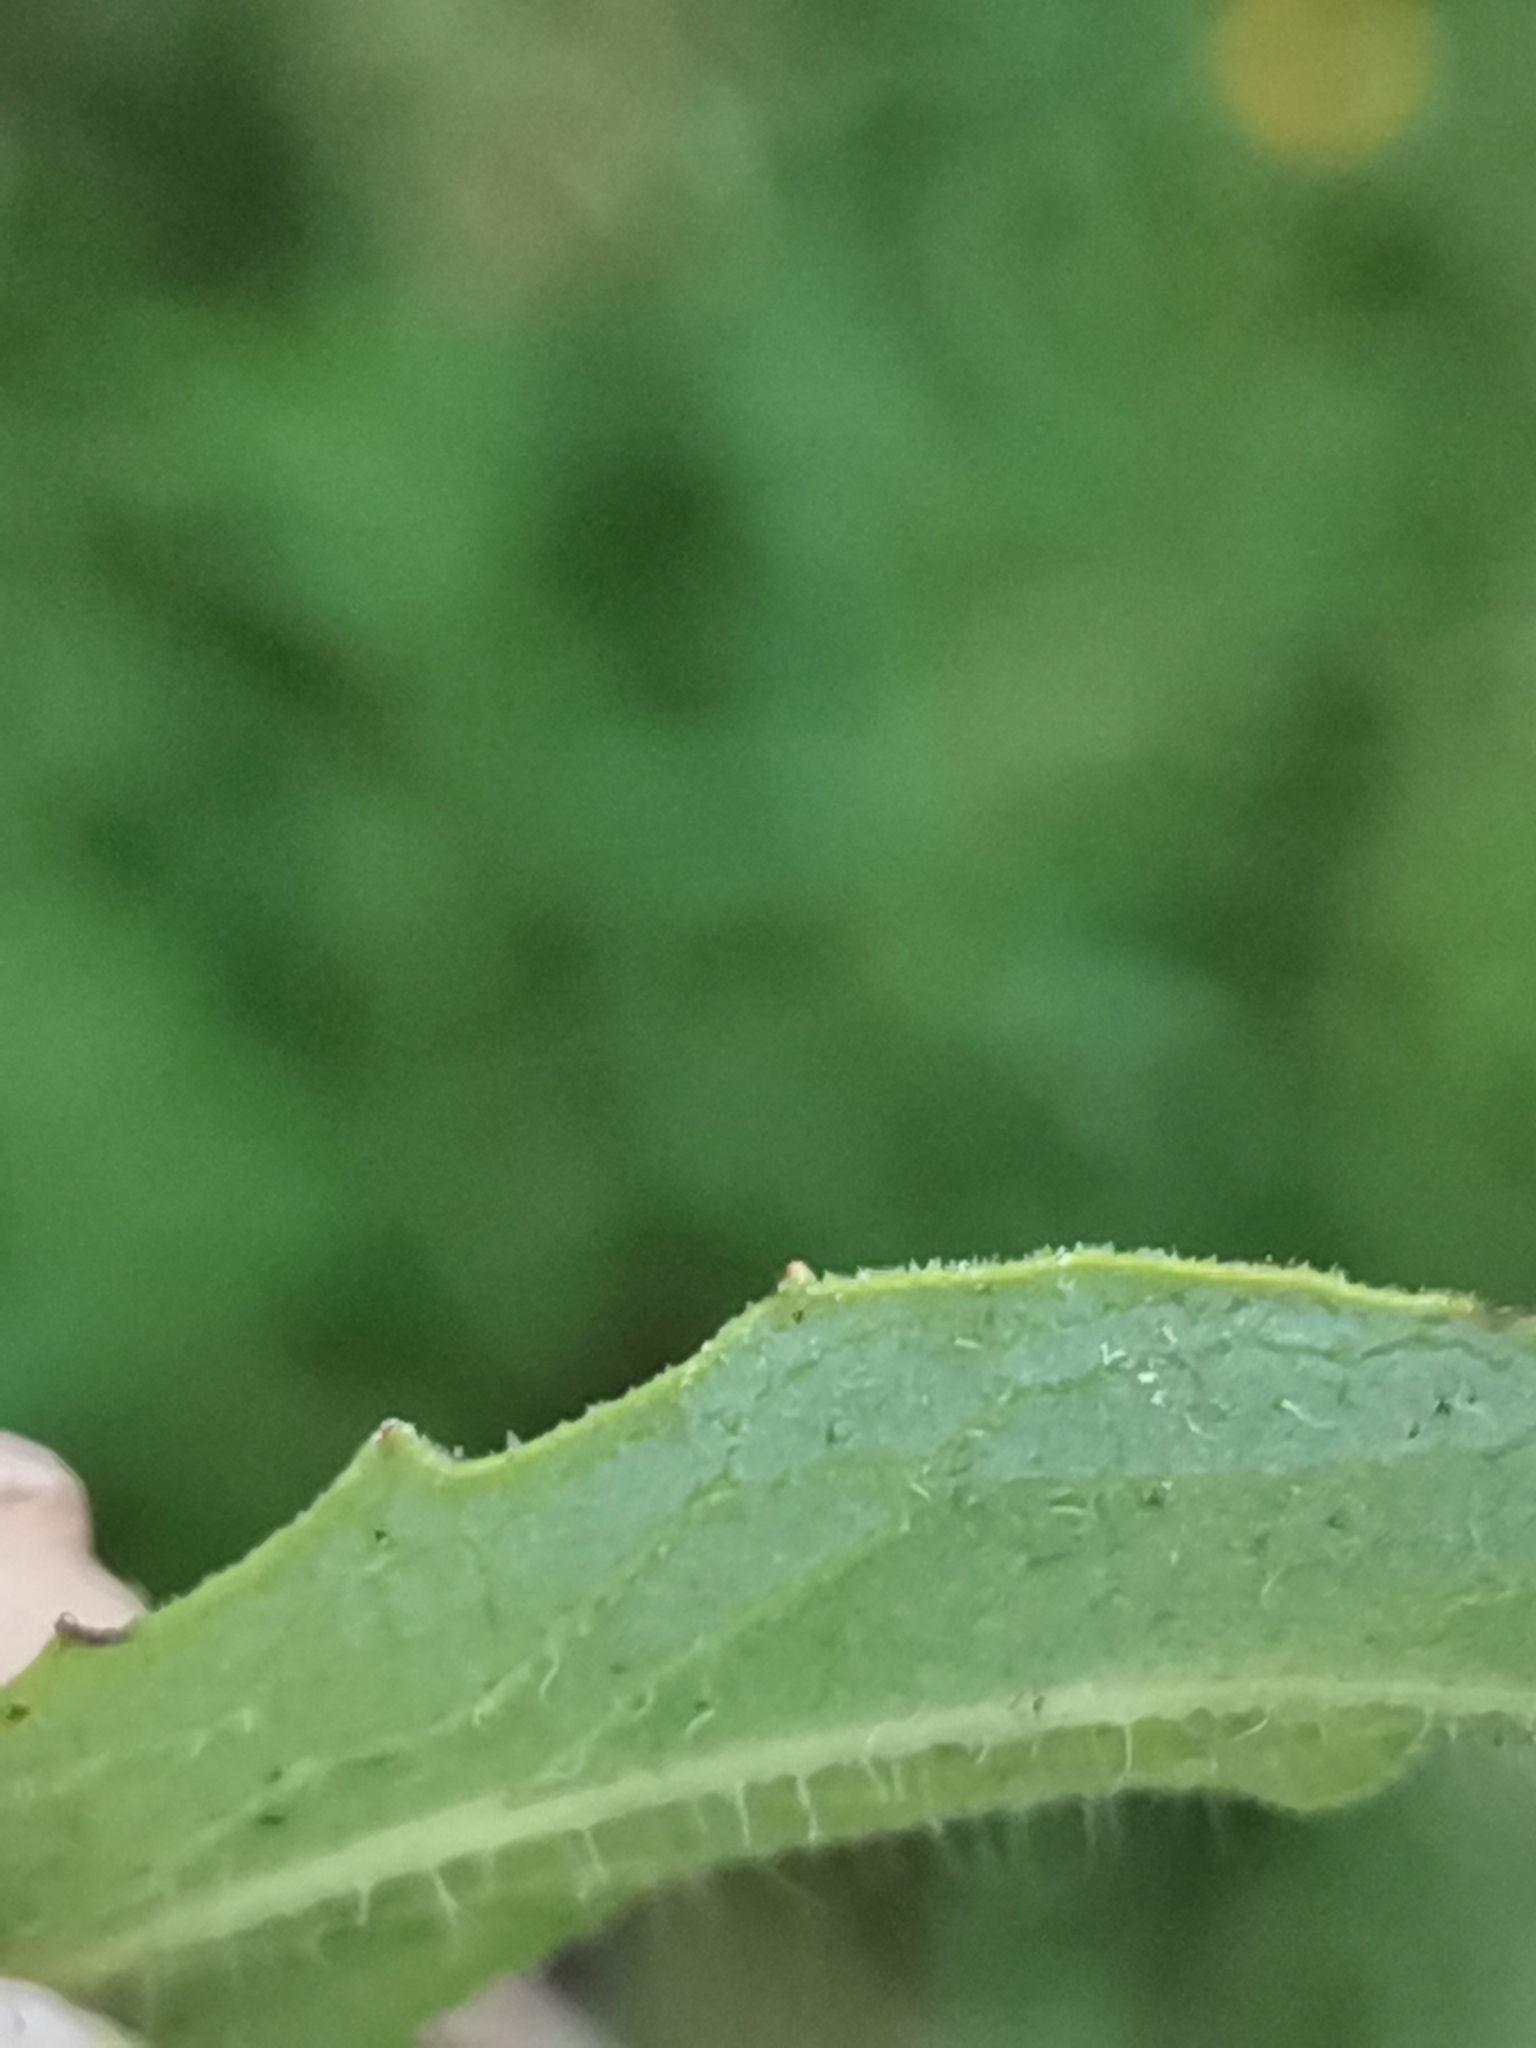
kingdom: Plantae
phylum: Tracheophyta
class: Magnoliopsida
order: Asterales
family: Asteraceae
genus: Hieracium
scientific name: Hieracium umbellatum
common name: Northern hawkweed
